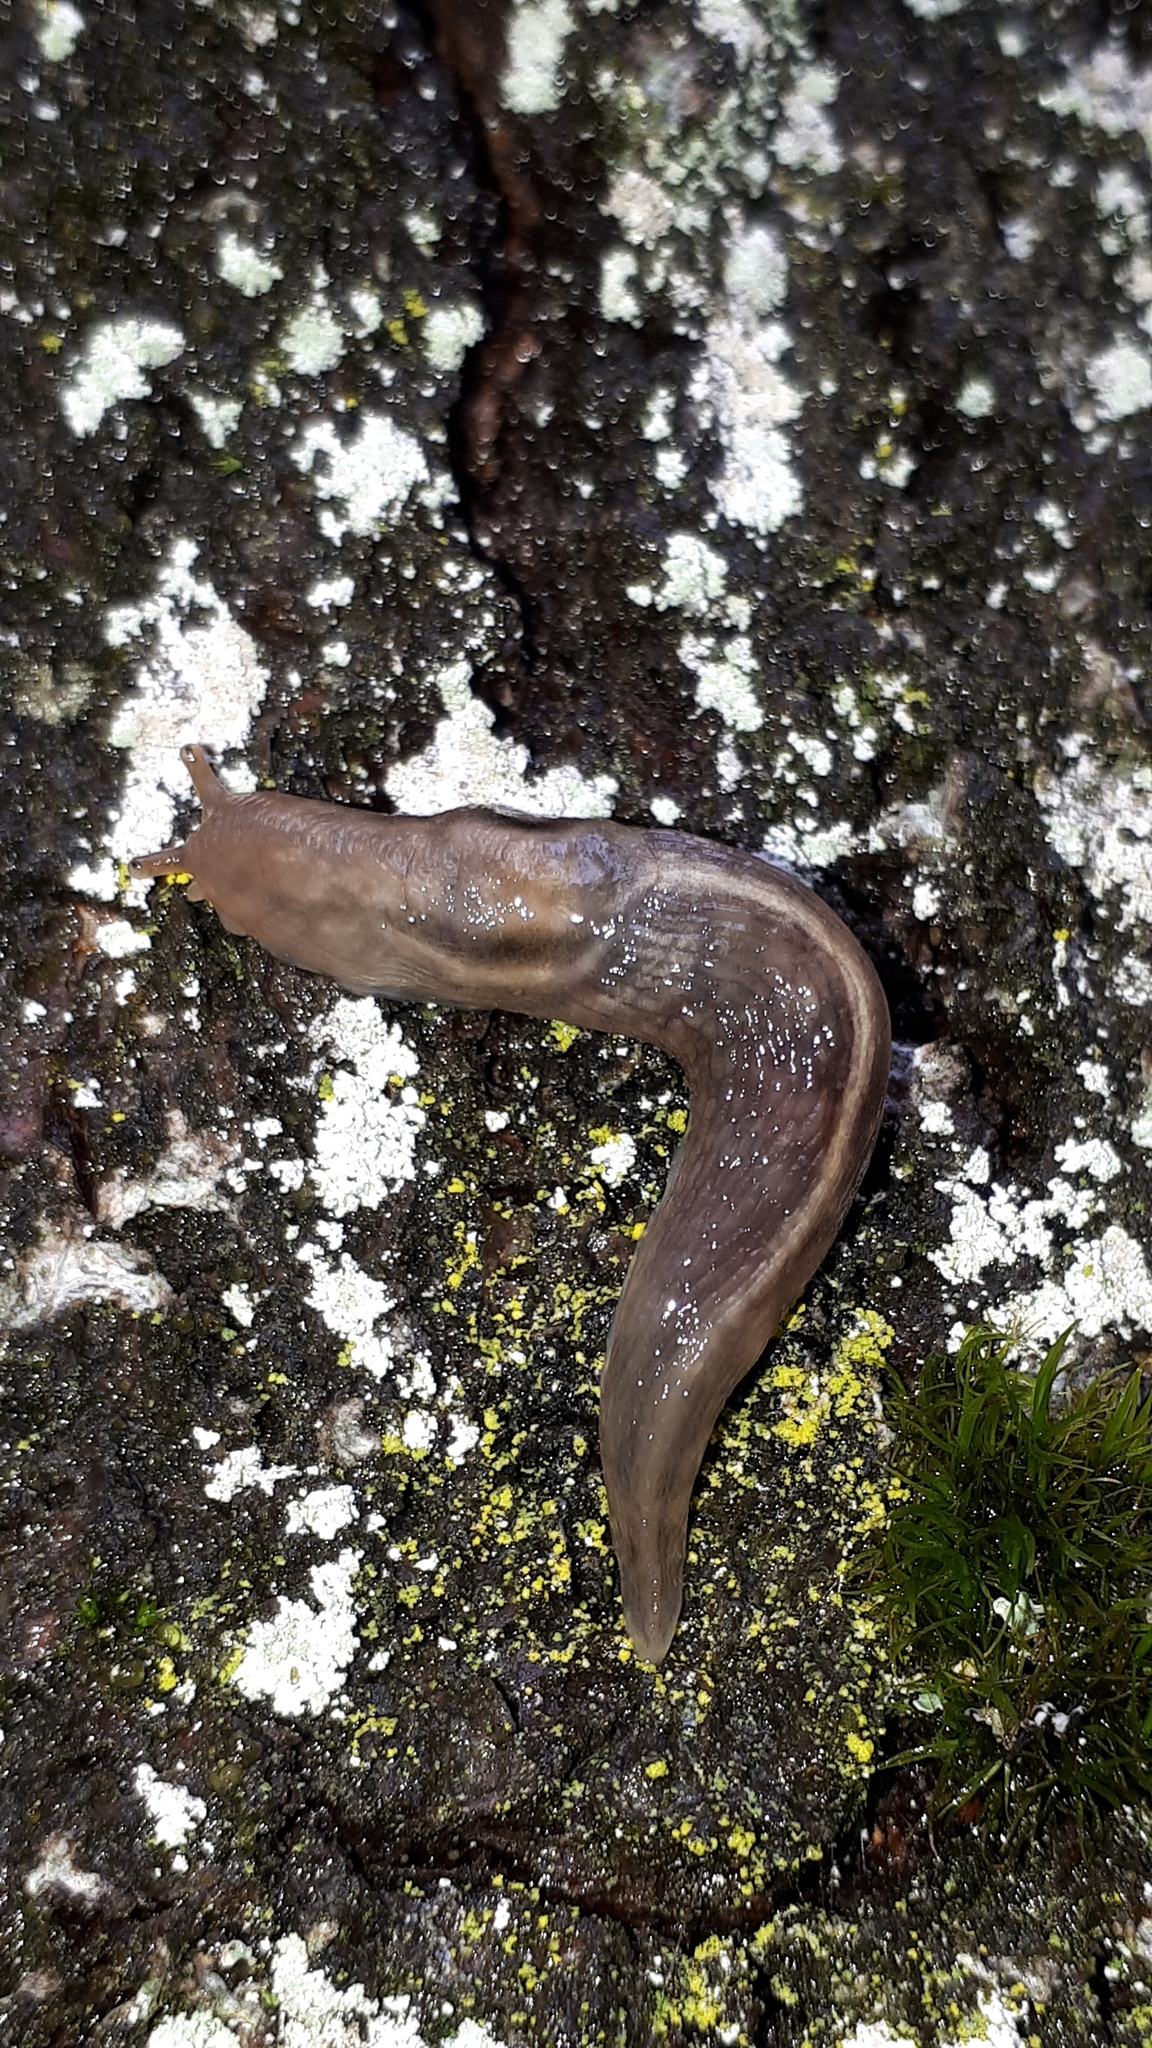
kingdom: Animalia
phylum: Mollusca
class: Gastropoda
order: Stylommatophora
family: Limacidae
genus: Lehmannia
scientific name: Lehmannia marginata
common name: Tree slug
